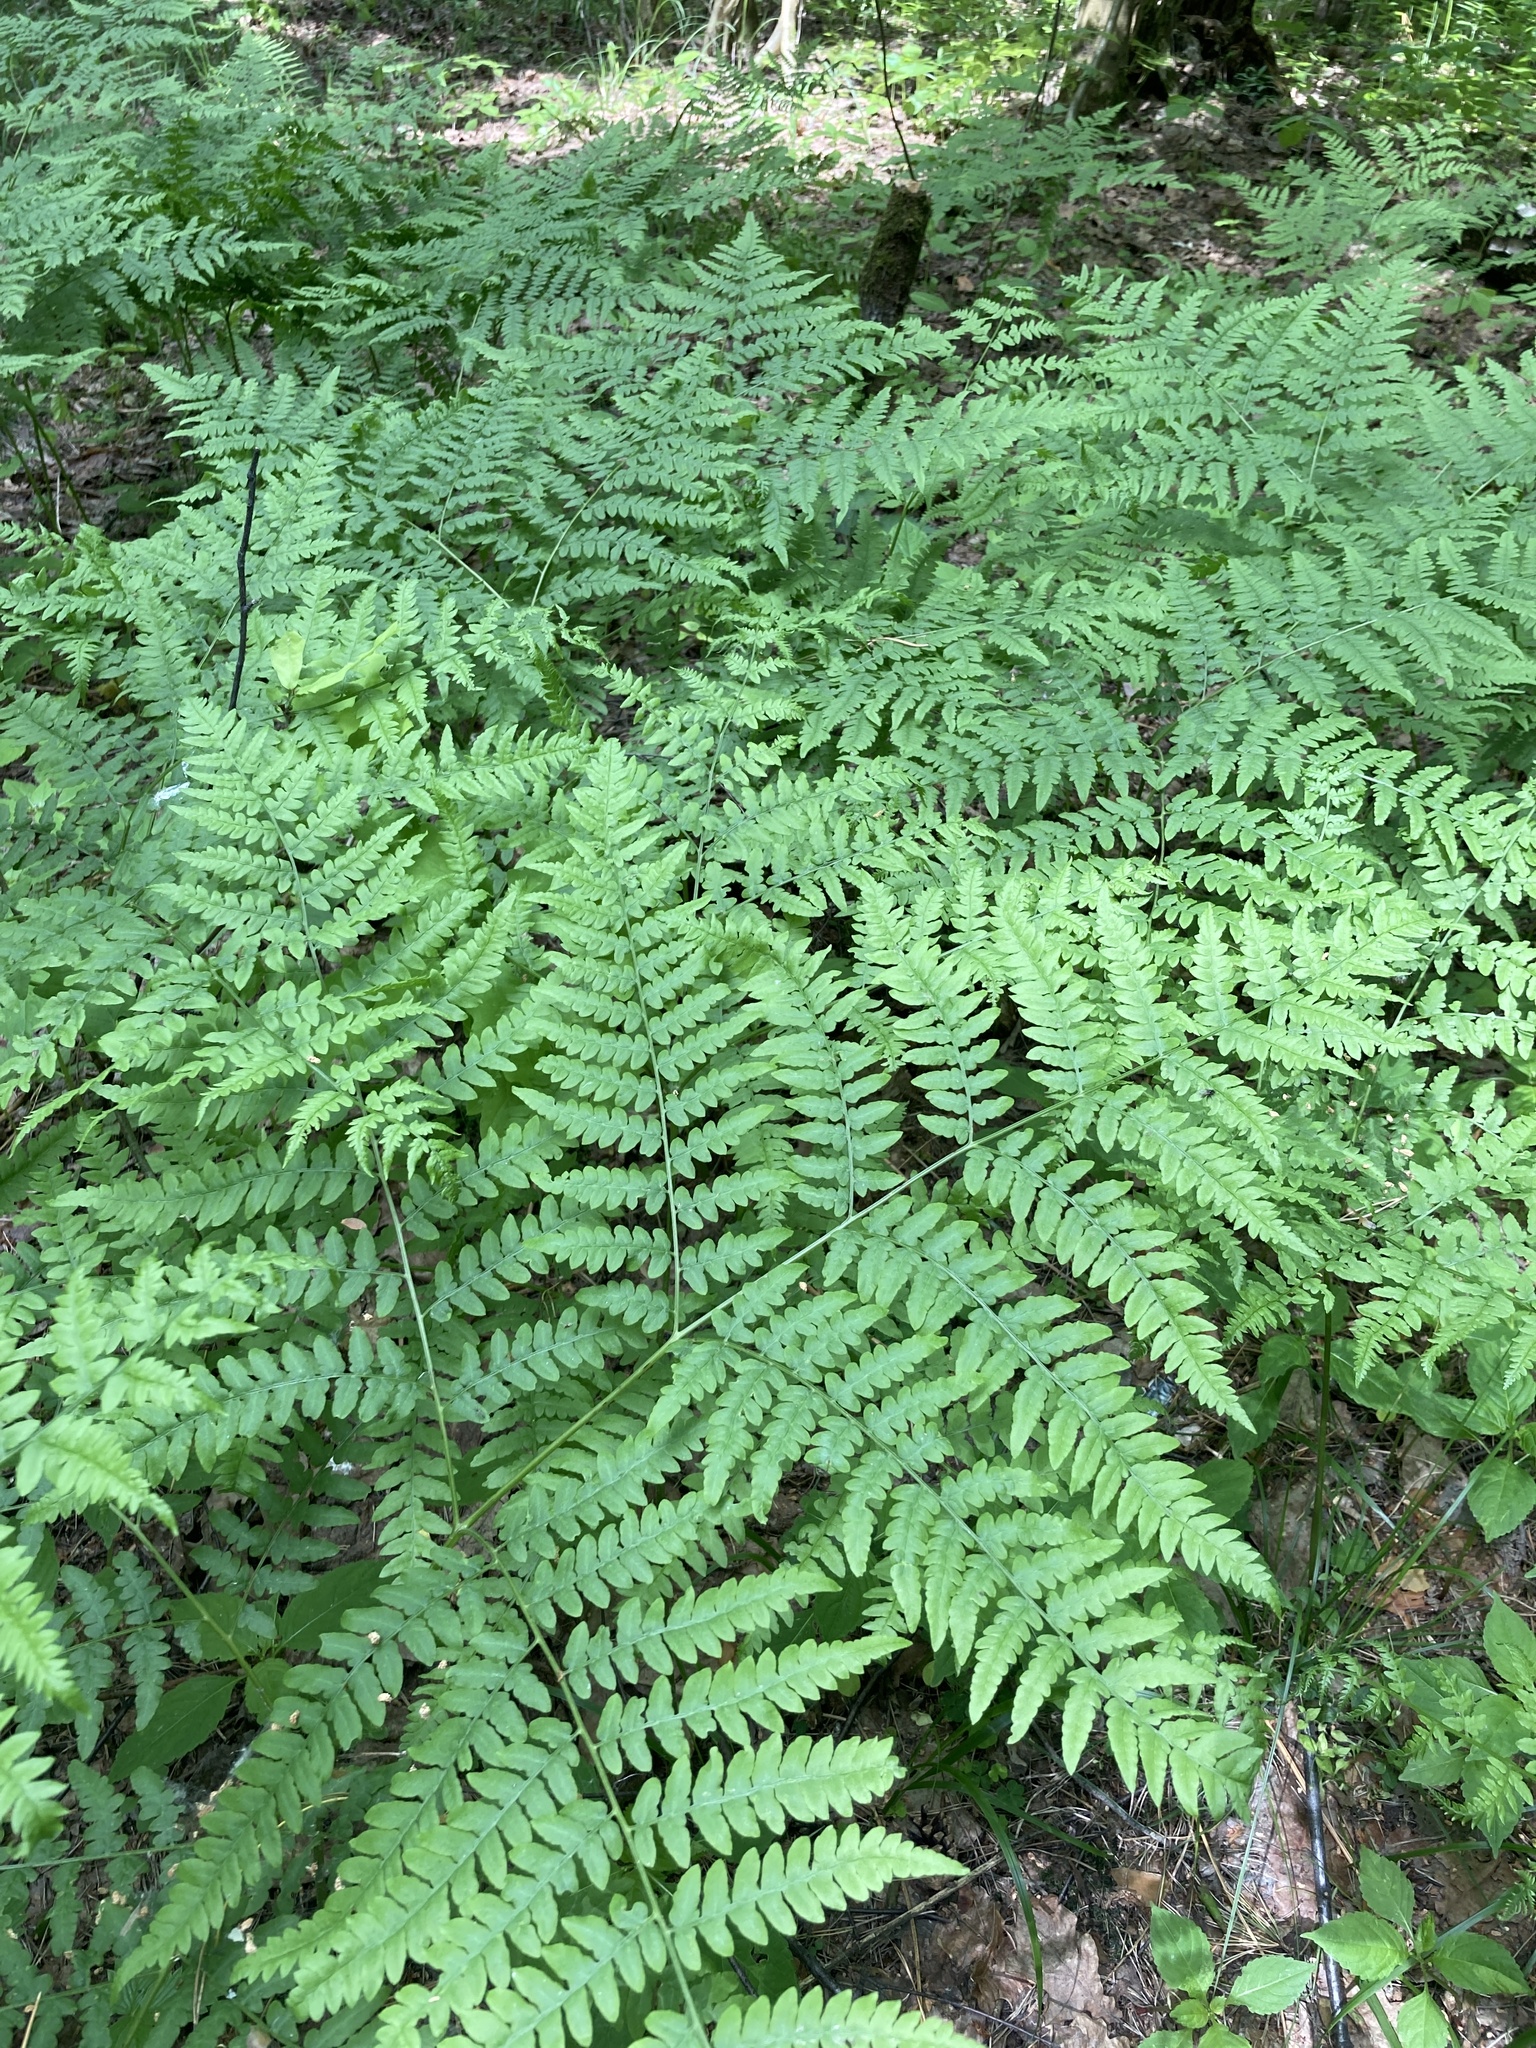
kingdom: Plantae
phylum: Tracheophyta
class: Polypodiopsida
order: Polypodiales
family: Dennstaedtiaceae
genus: Pteridium
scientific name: Pteridium aquilinum
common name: Bracken
